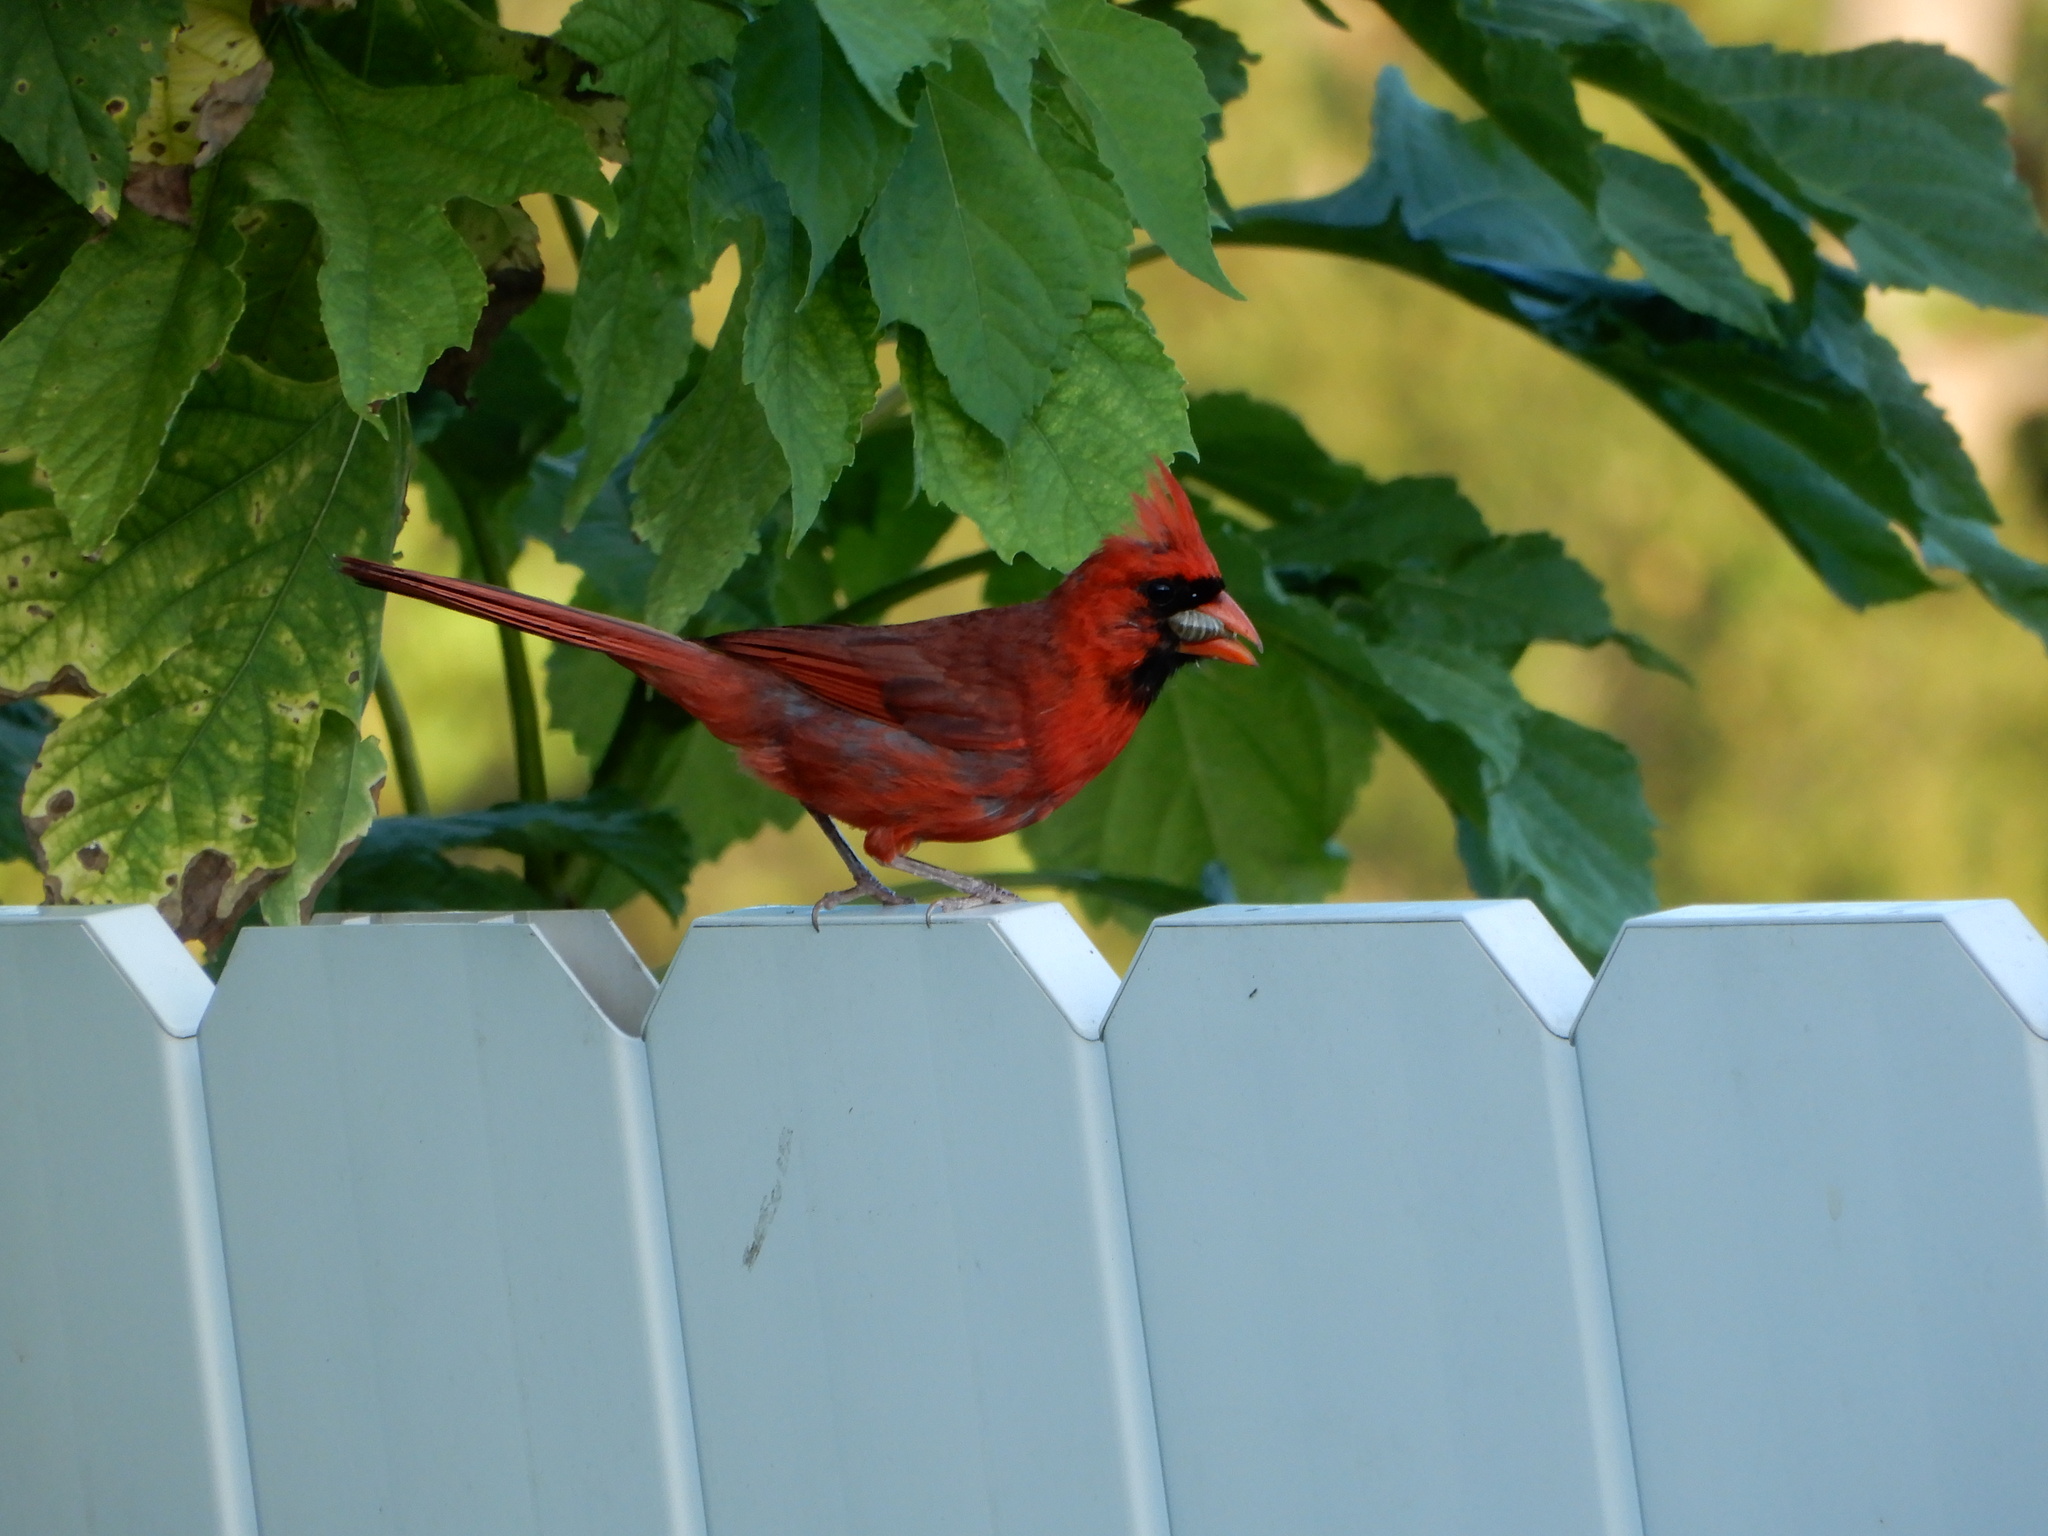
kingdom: Animalia
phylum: Chordata
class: Aves
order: Passeriformes
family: Cardinalidae
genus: Cardinalis
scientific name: Cardinalis cardinalis
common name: Northern cardinal
